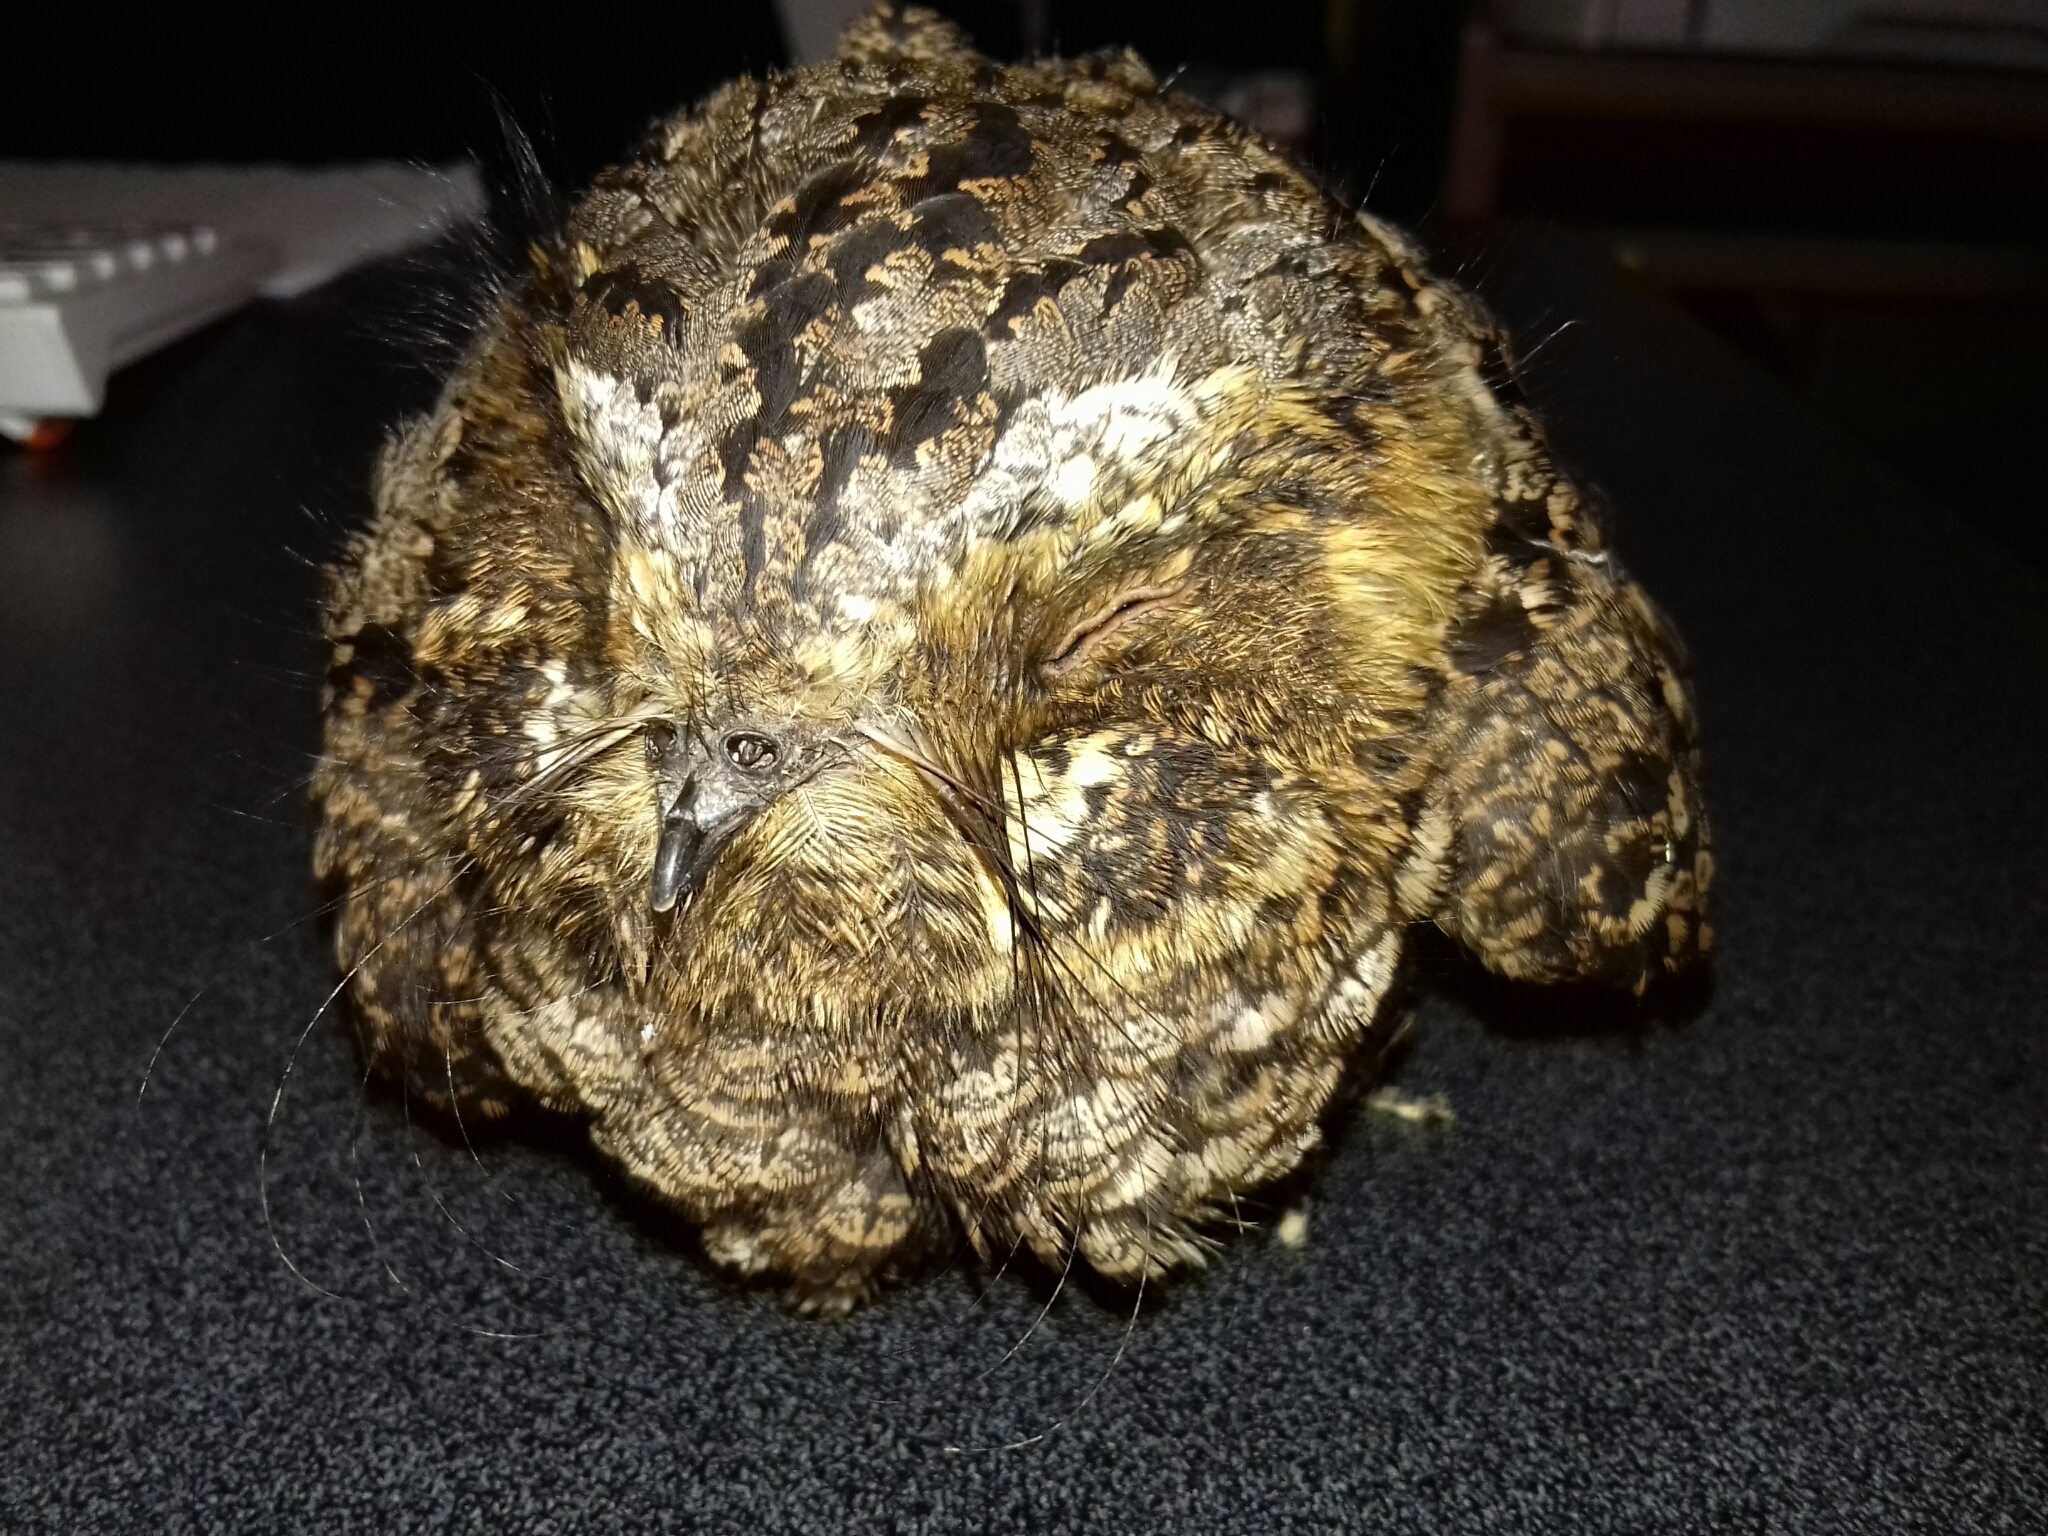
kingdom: Animalia
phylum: Chordata
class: Aves
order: Caprimulgiformes
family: Caprimulgidae
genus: Antrostomus
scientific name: Antrostomus arizonae
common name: Mexican whip-poor-will
